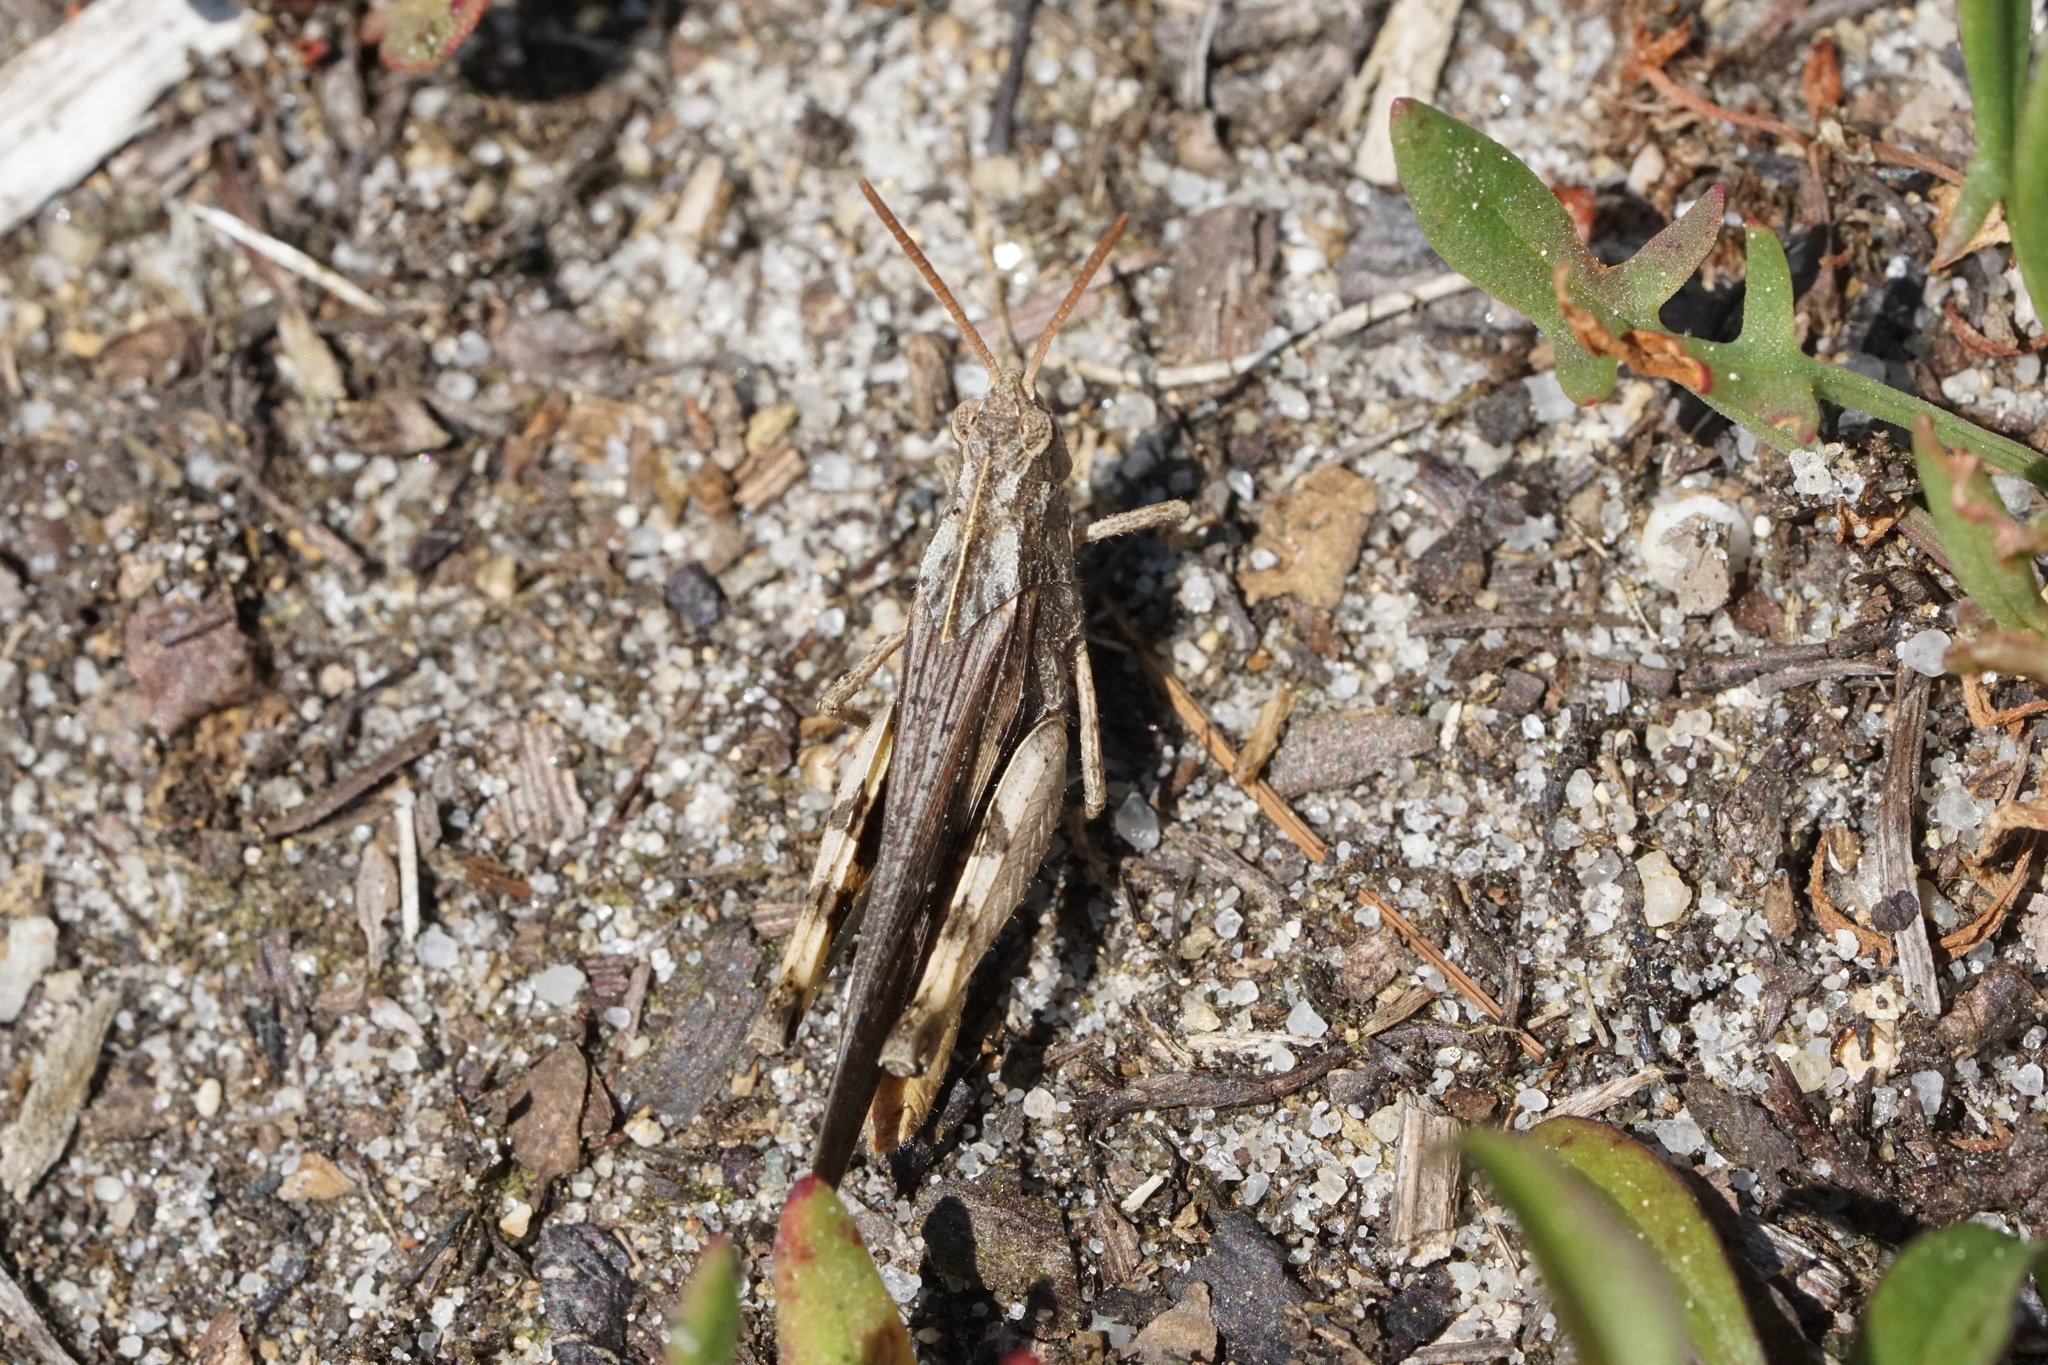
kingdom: Animalia
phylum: Arthropoda
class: Insecta
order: Orthoptera
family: Acrididae
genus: Chortophaga
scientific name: Chortophaga viridifasciata
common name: Green-striped grasshopper
